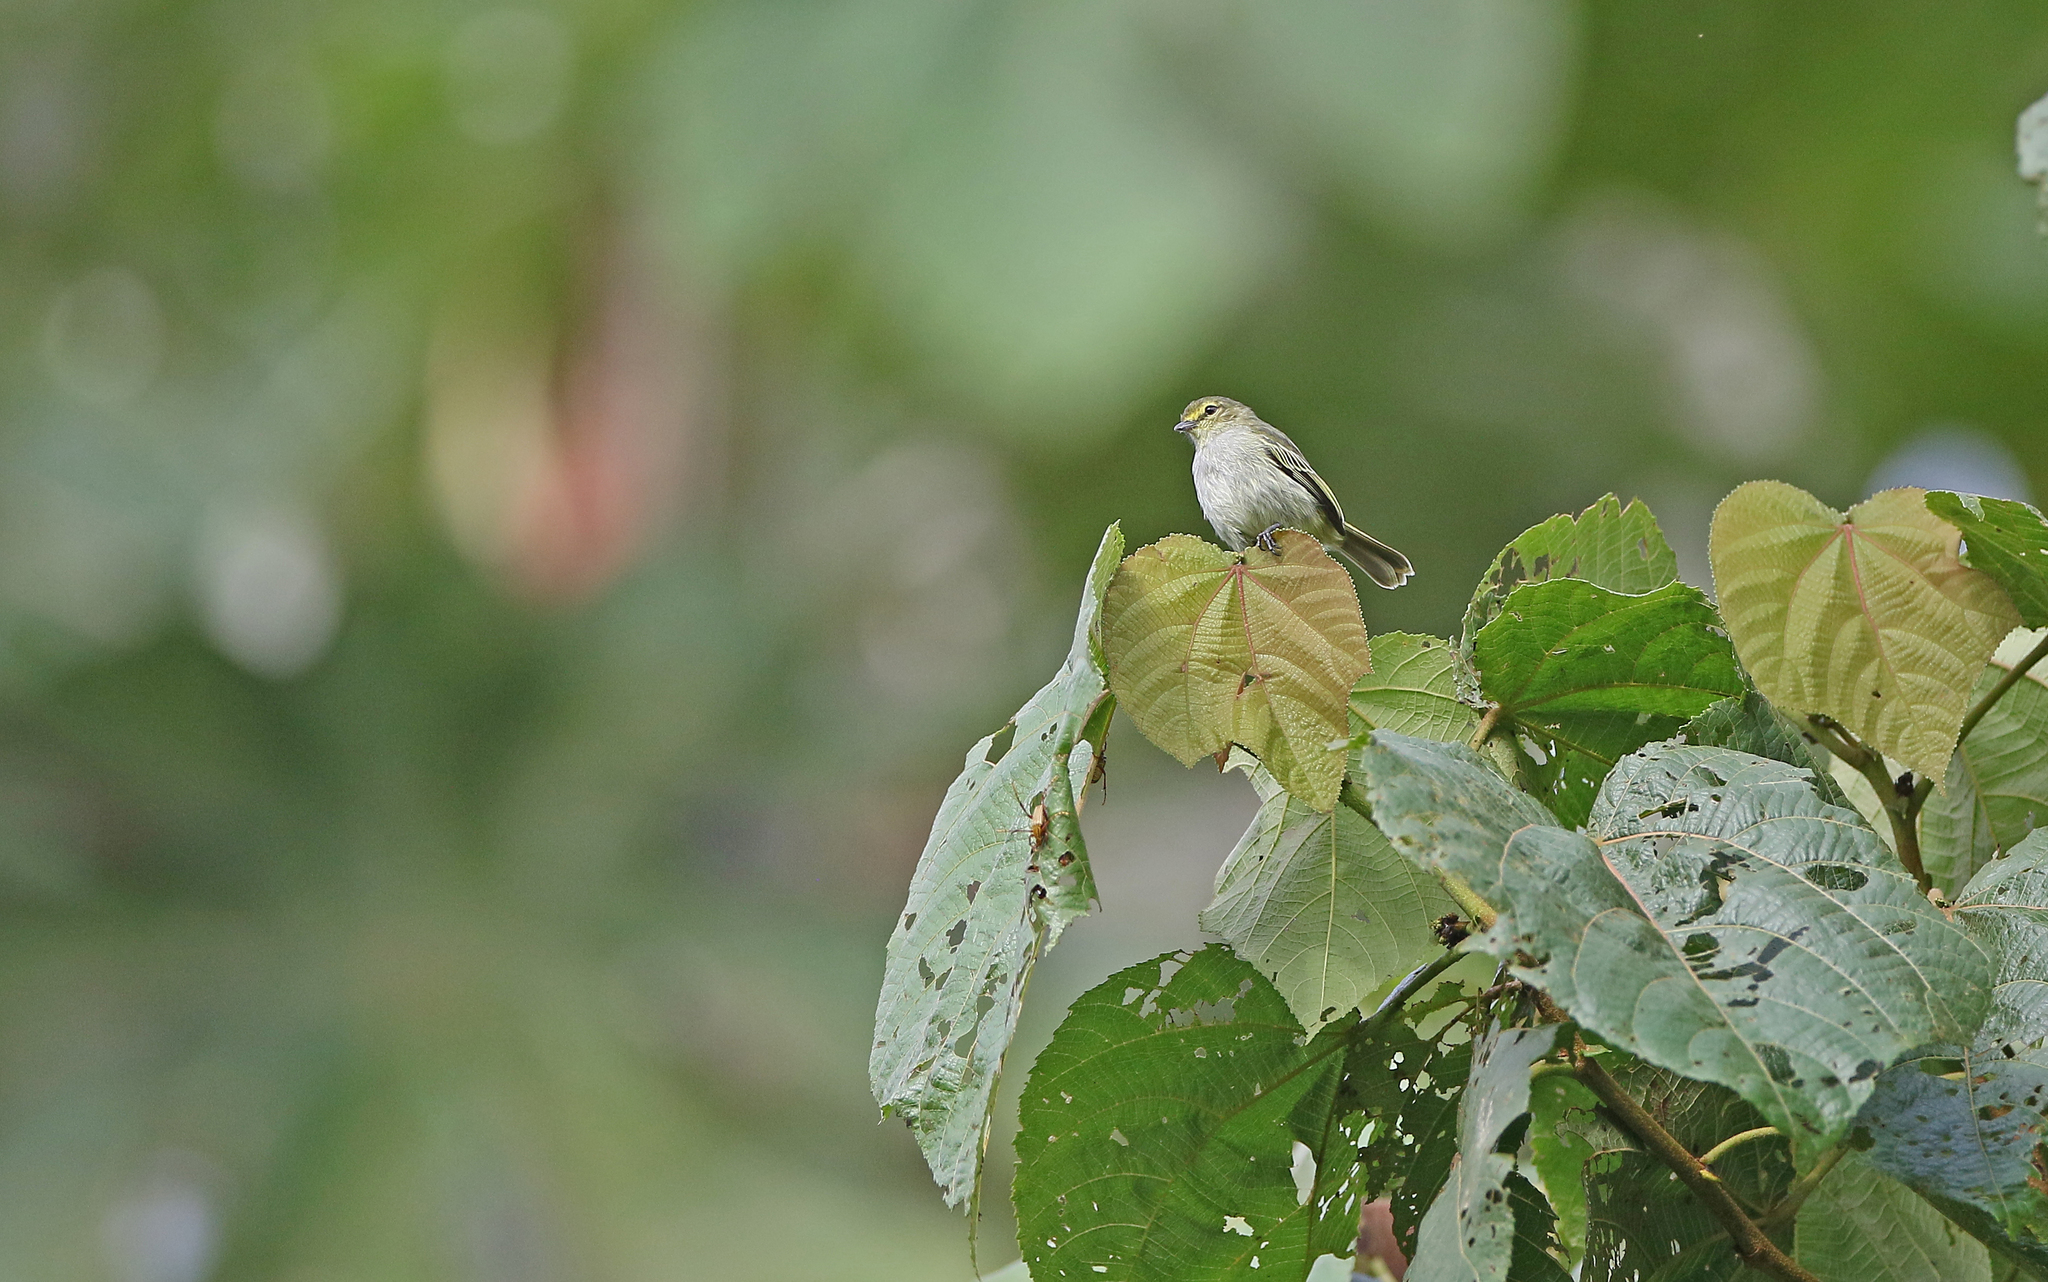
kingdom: Animalia
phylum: Chordata
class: Aves
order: Passeriformes
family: Tyrannidae
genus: Zimmerius
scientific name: Zimmerius chrysops
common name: Golden-faced tyrannulet
